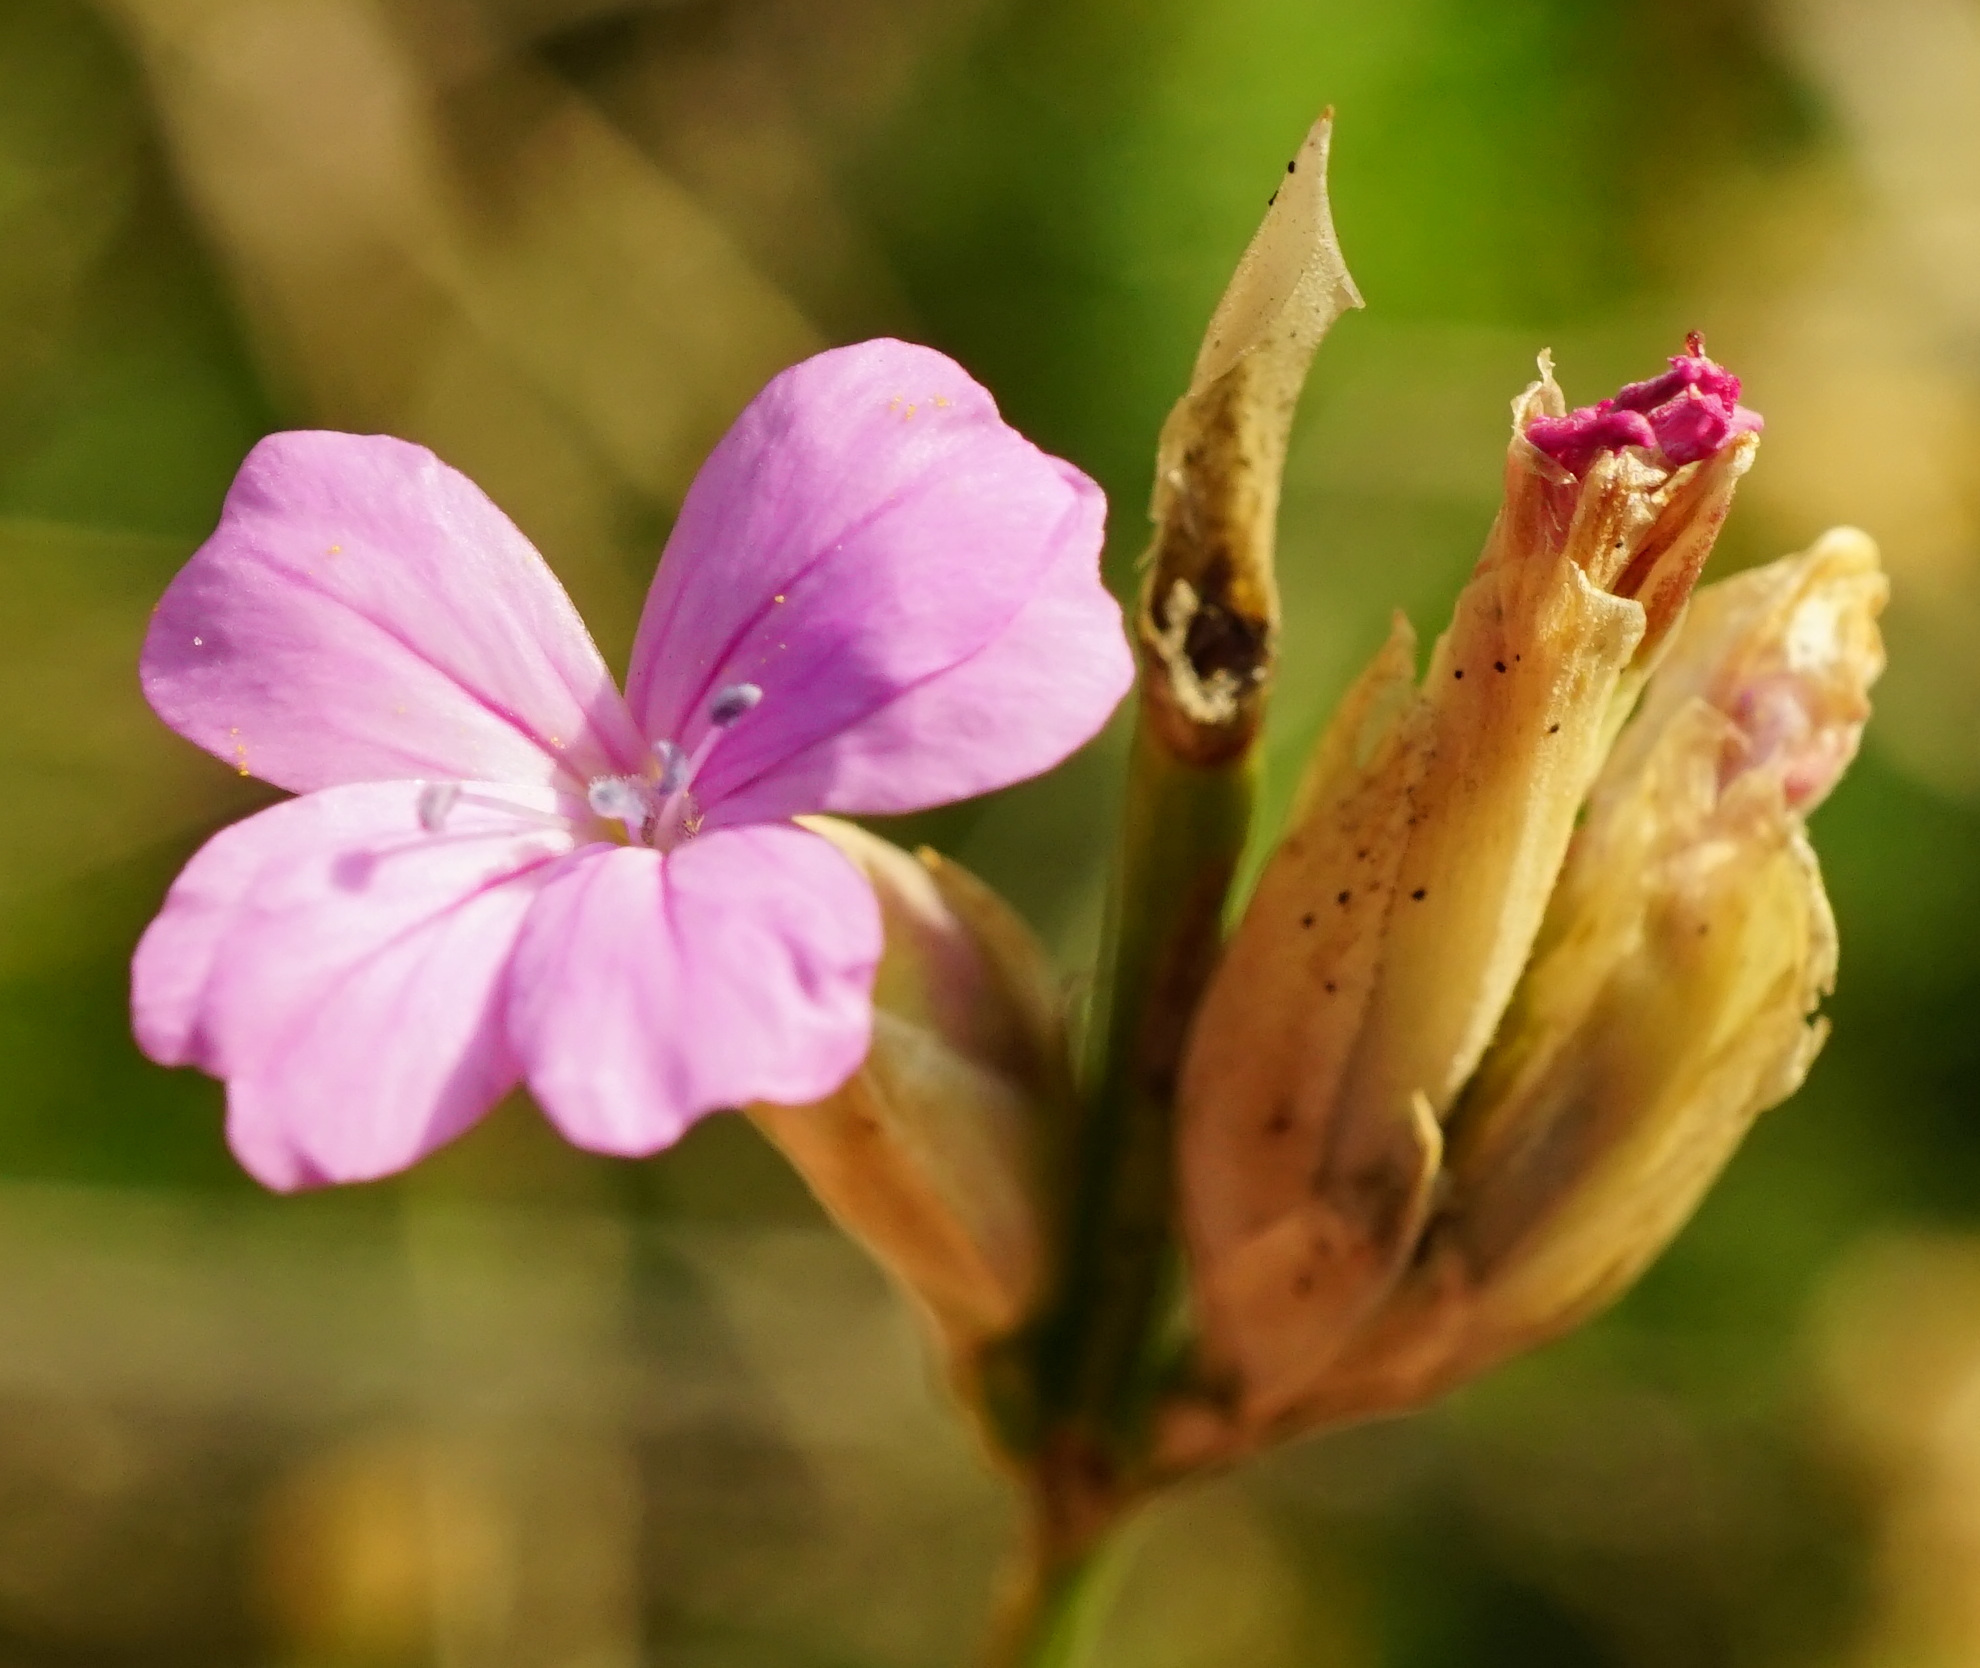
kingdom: Plantae
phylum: Tracheophyta
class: Magnoliopsida
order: Caryophyllales
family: Caryophyllaceae
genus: Petrorhagia
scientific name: Petrorhagia prolifera
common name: Proliferous pink
